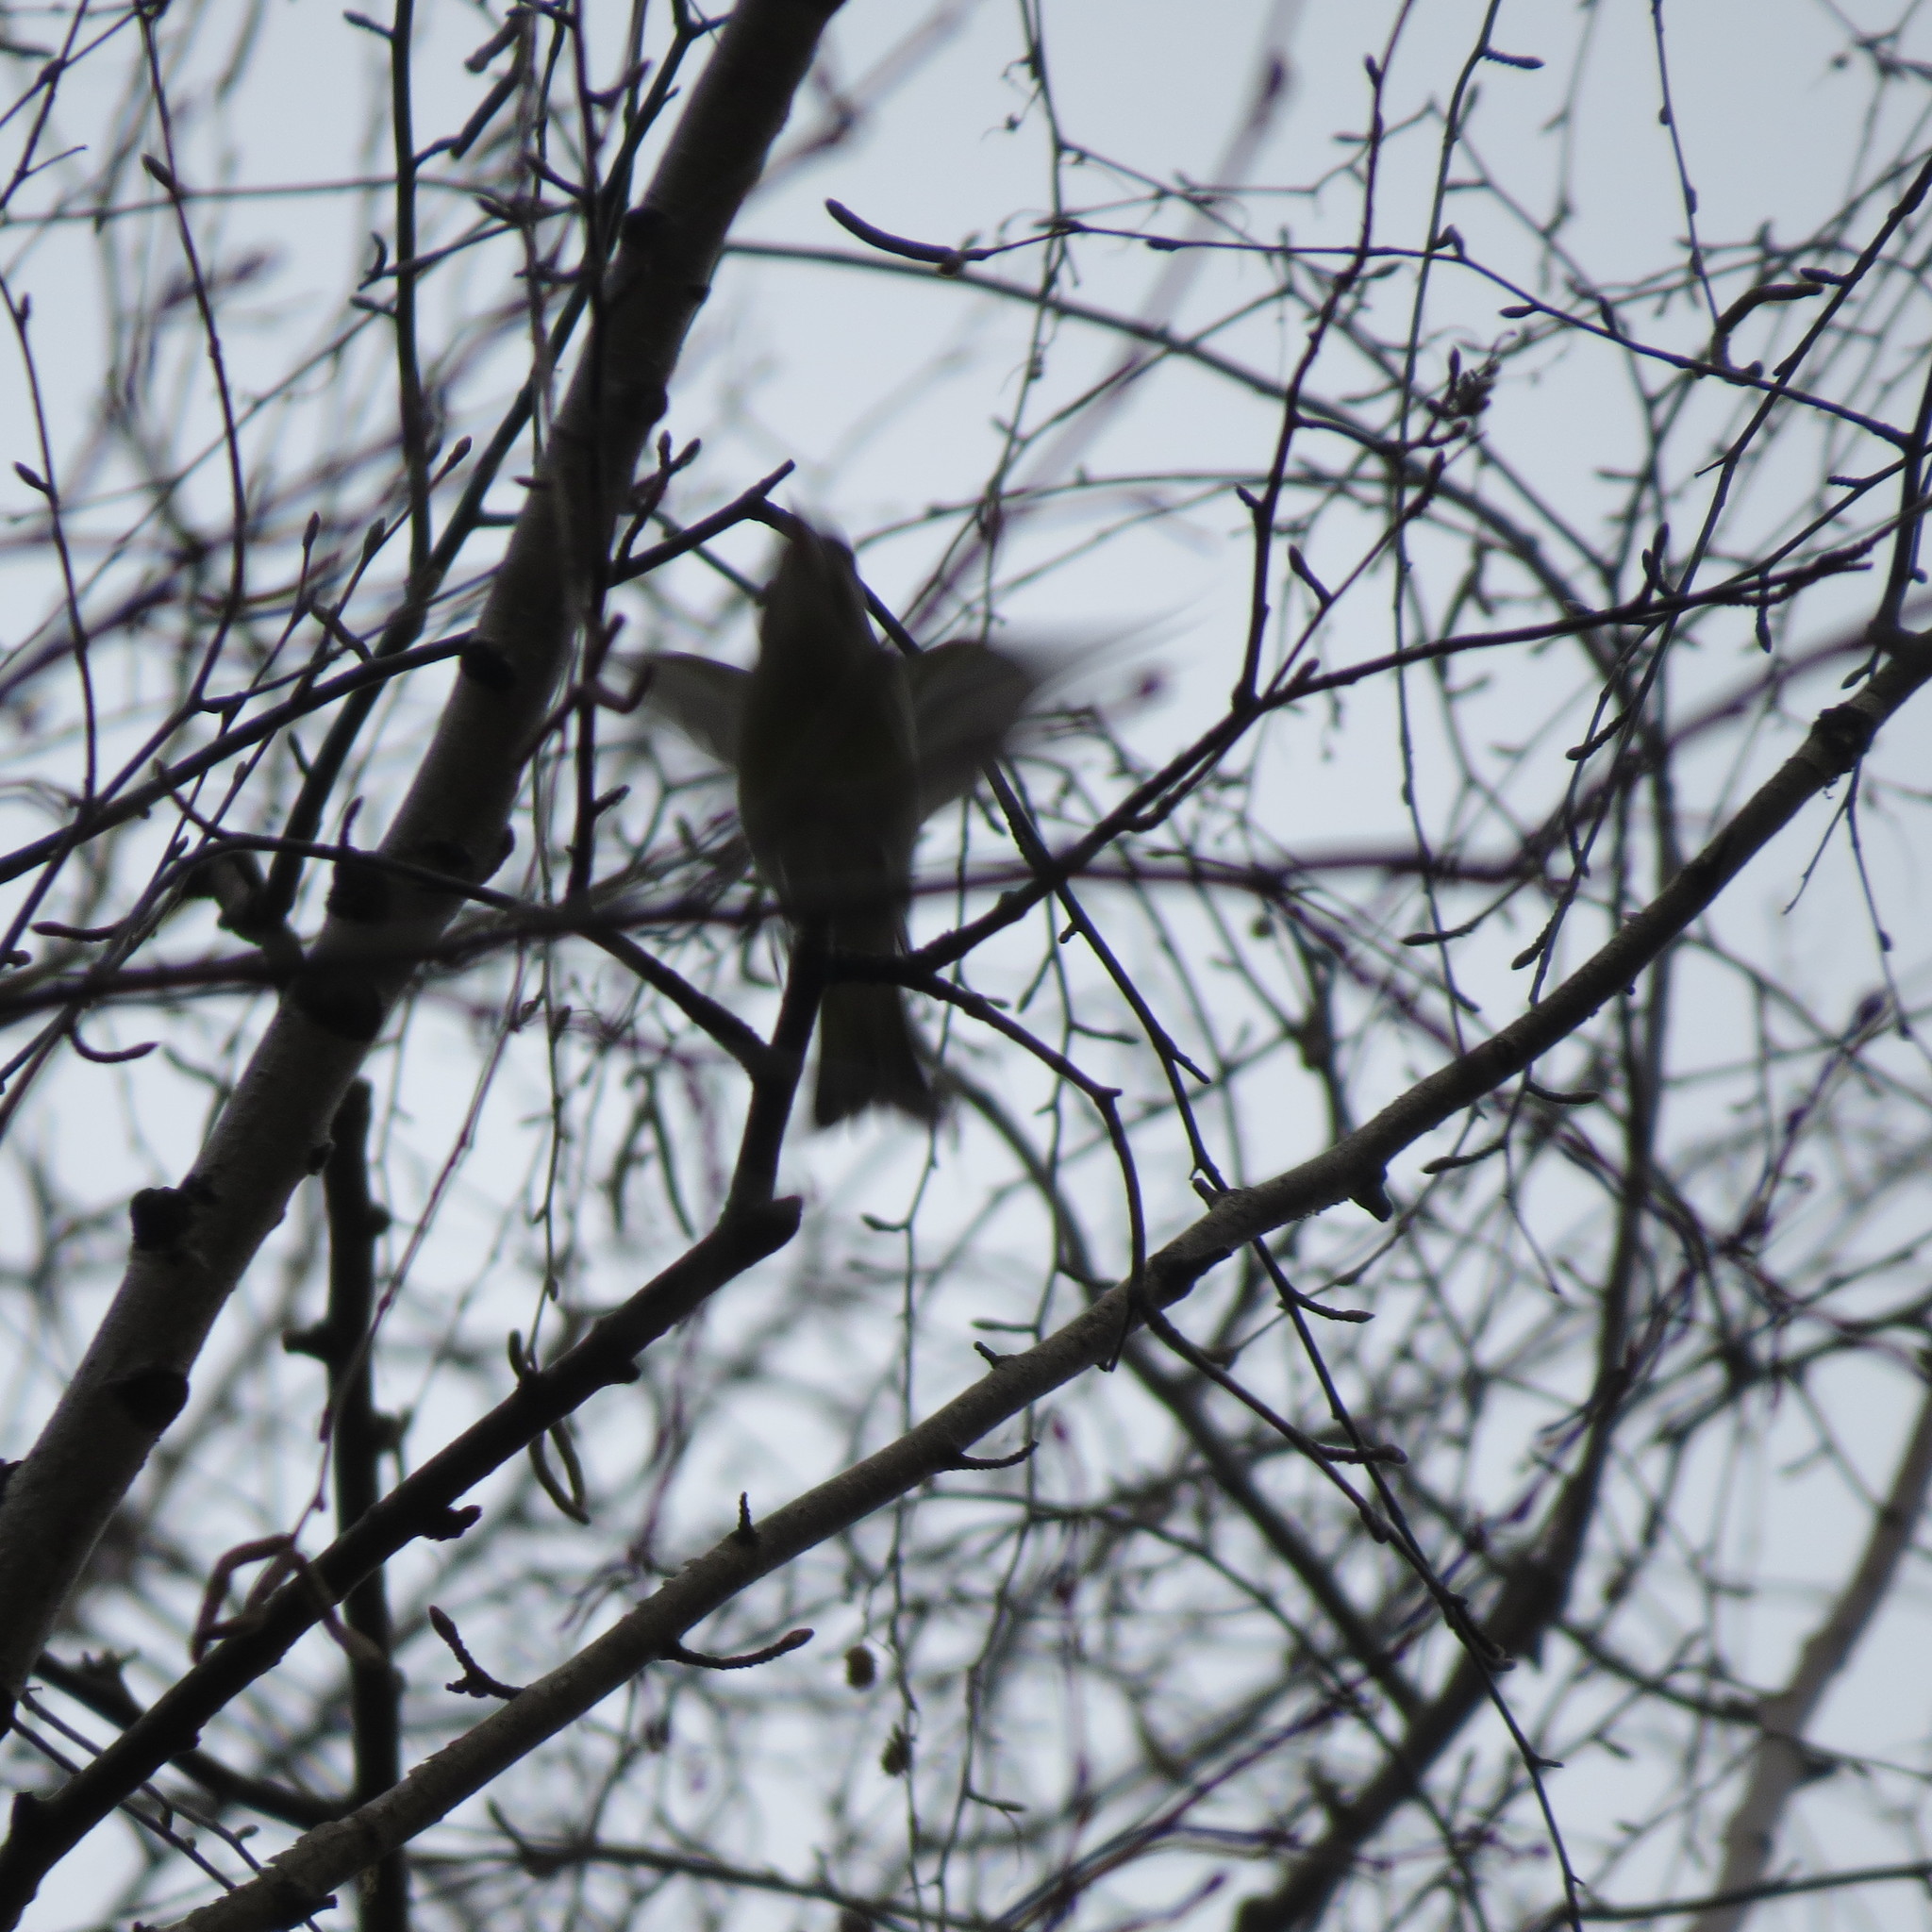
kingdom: Plantae
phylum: Tracheophyta
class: Liliopsida
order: Poales
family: Poaceae
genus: Chloris
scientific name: Chloris chloris
